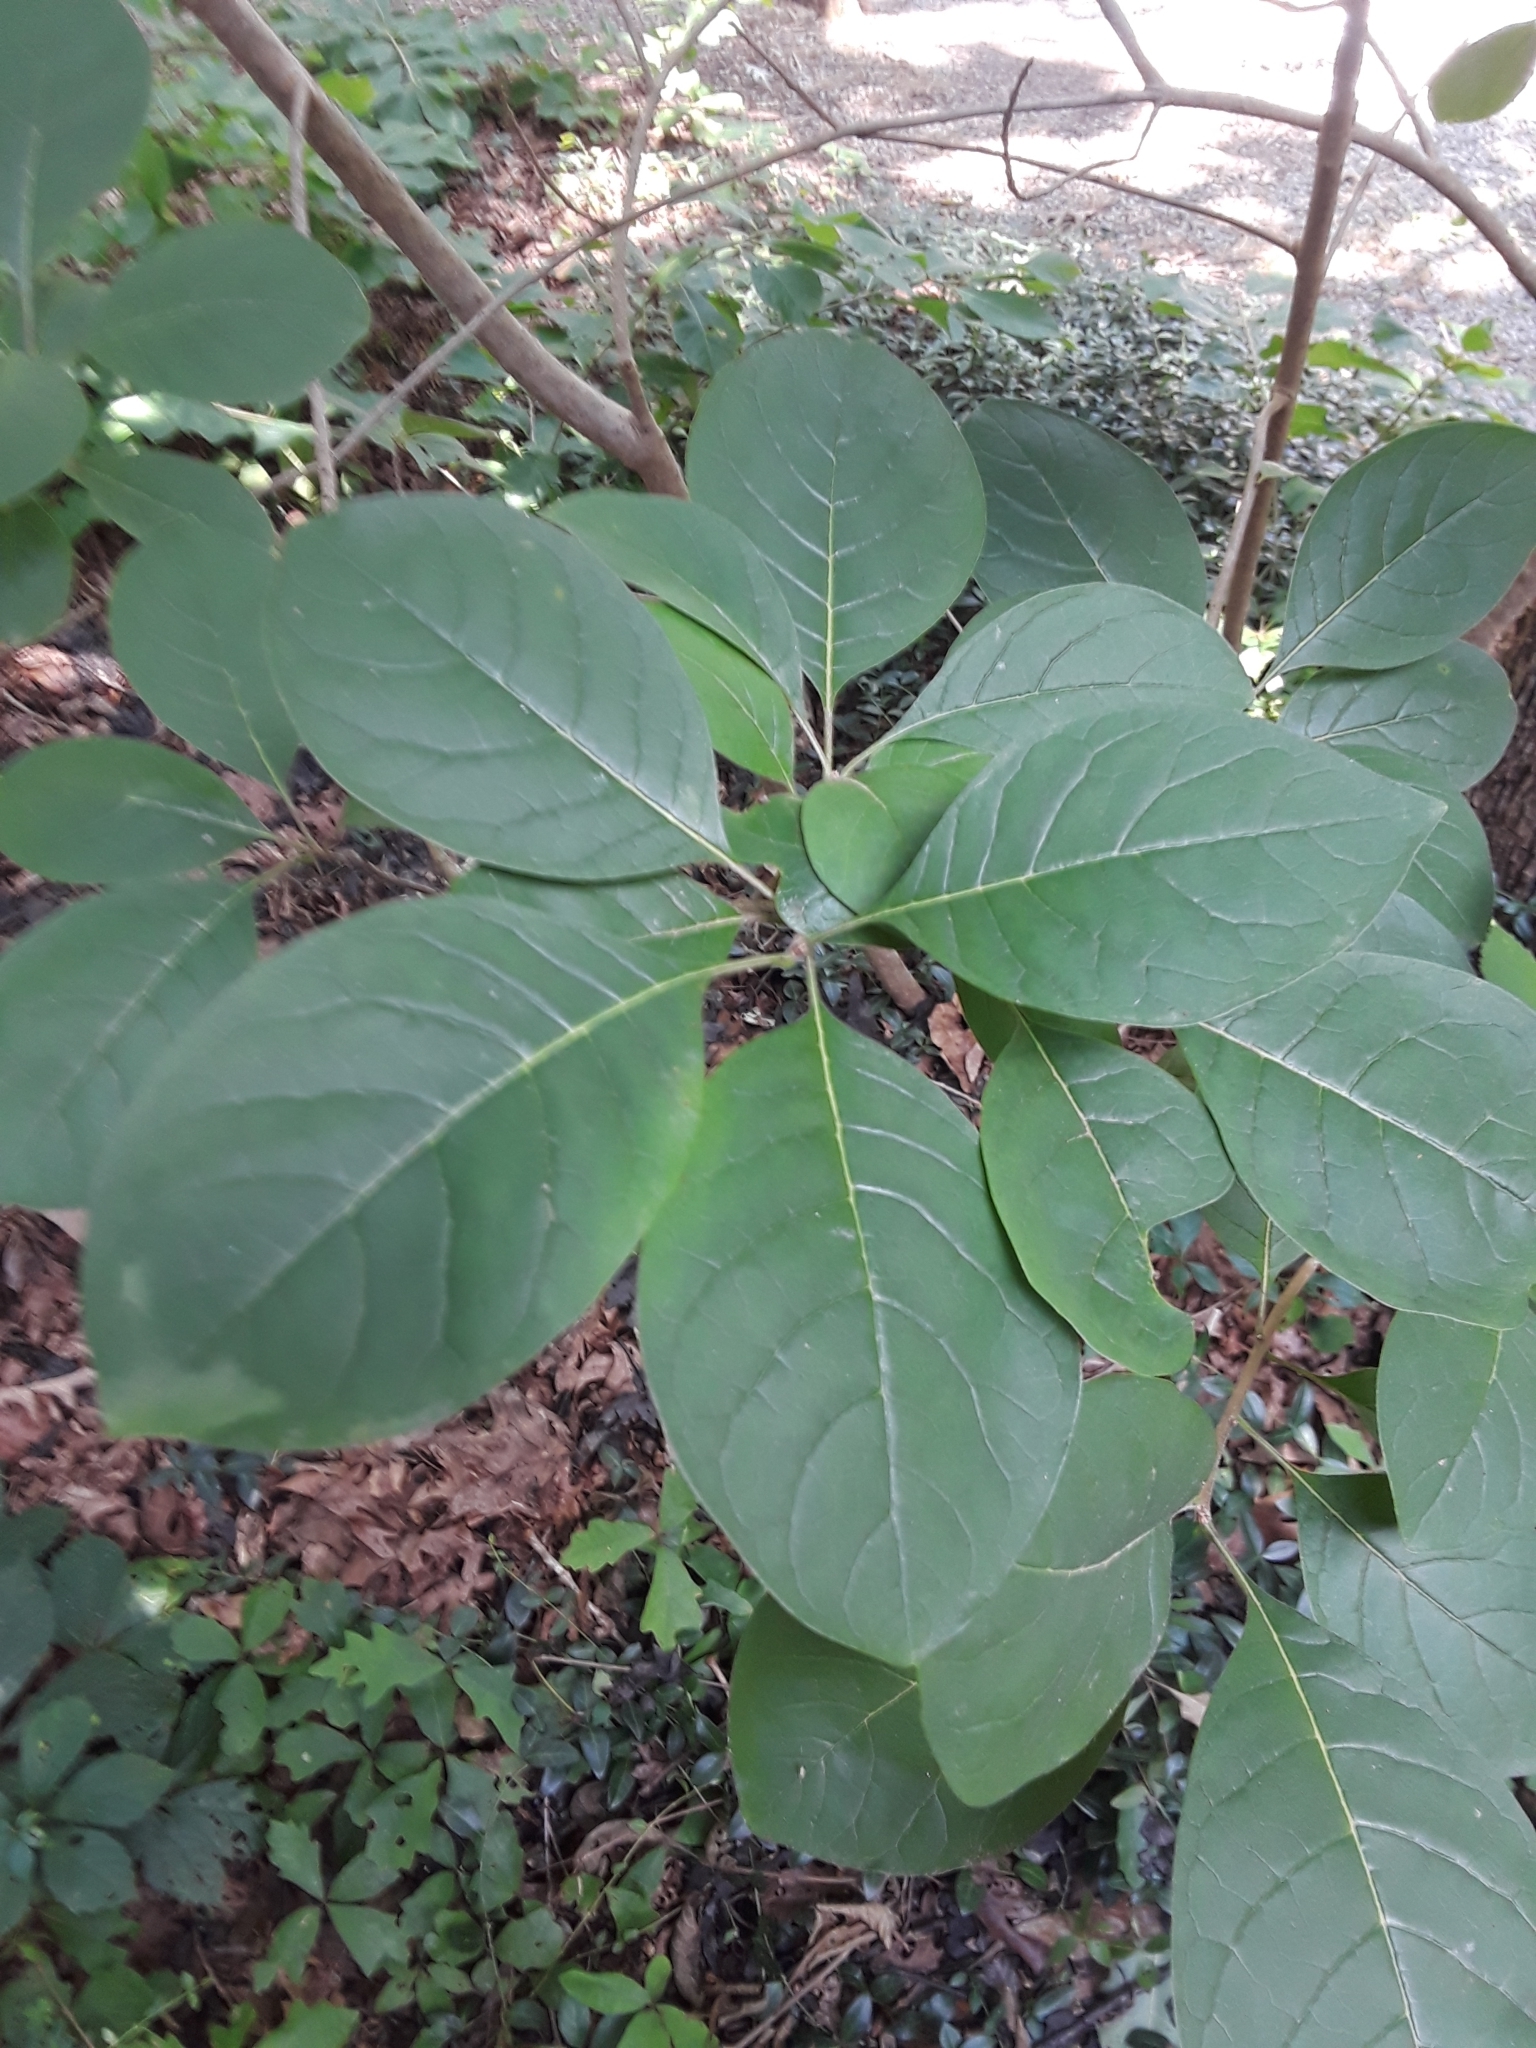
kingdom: Plantae
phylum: Tracheophyta
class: Magnoliopsida
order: Lamiales
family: Oleaceae
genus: Chionanthus
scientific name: Chionanthus virginicus
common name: American fringetree
